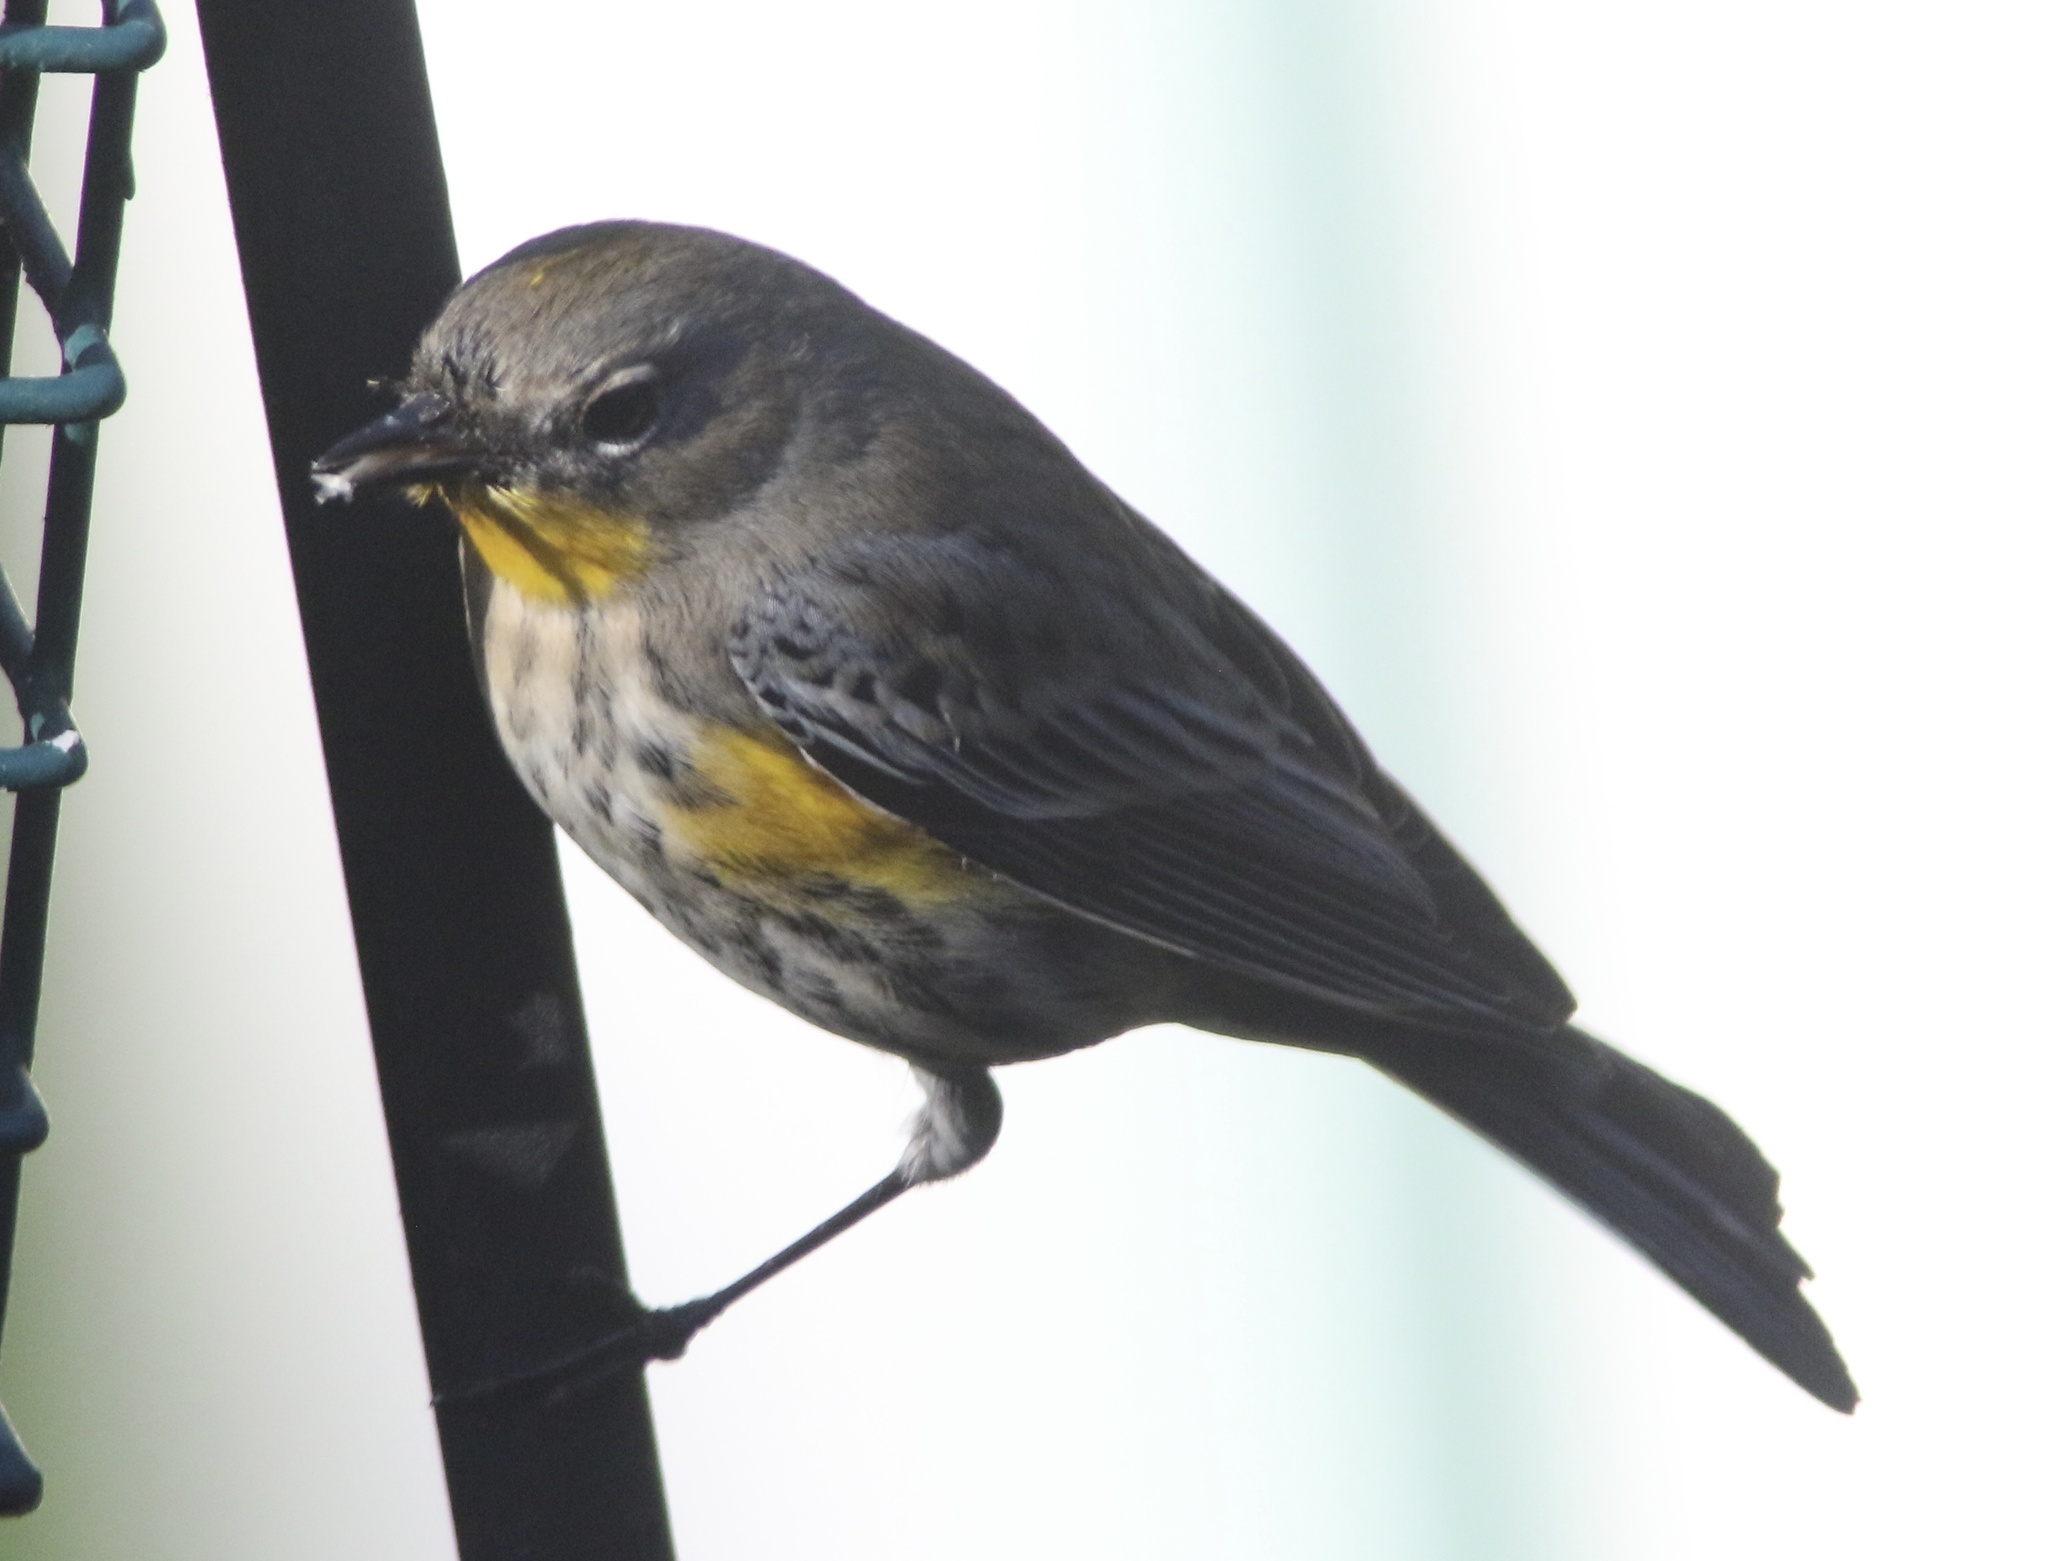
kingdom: Animalia
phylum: Chordata
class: Aves
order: Passeriformes
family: Parulidae
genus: Setophaga
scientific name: Setophaga coronata
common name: Myrtle warbler
